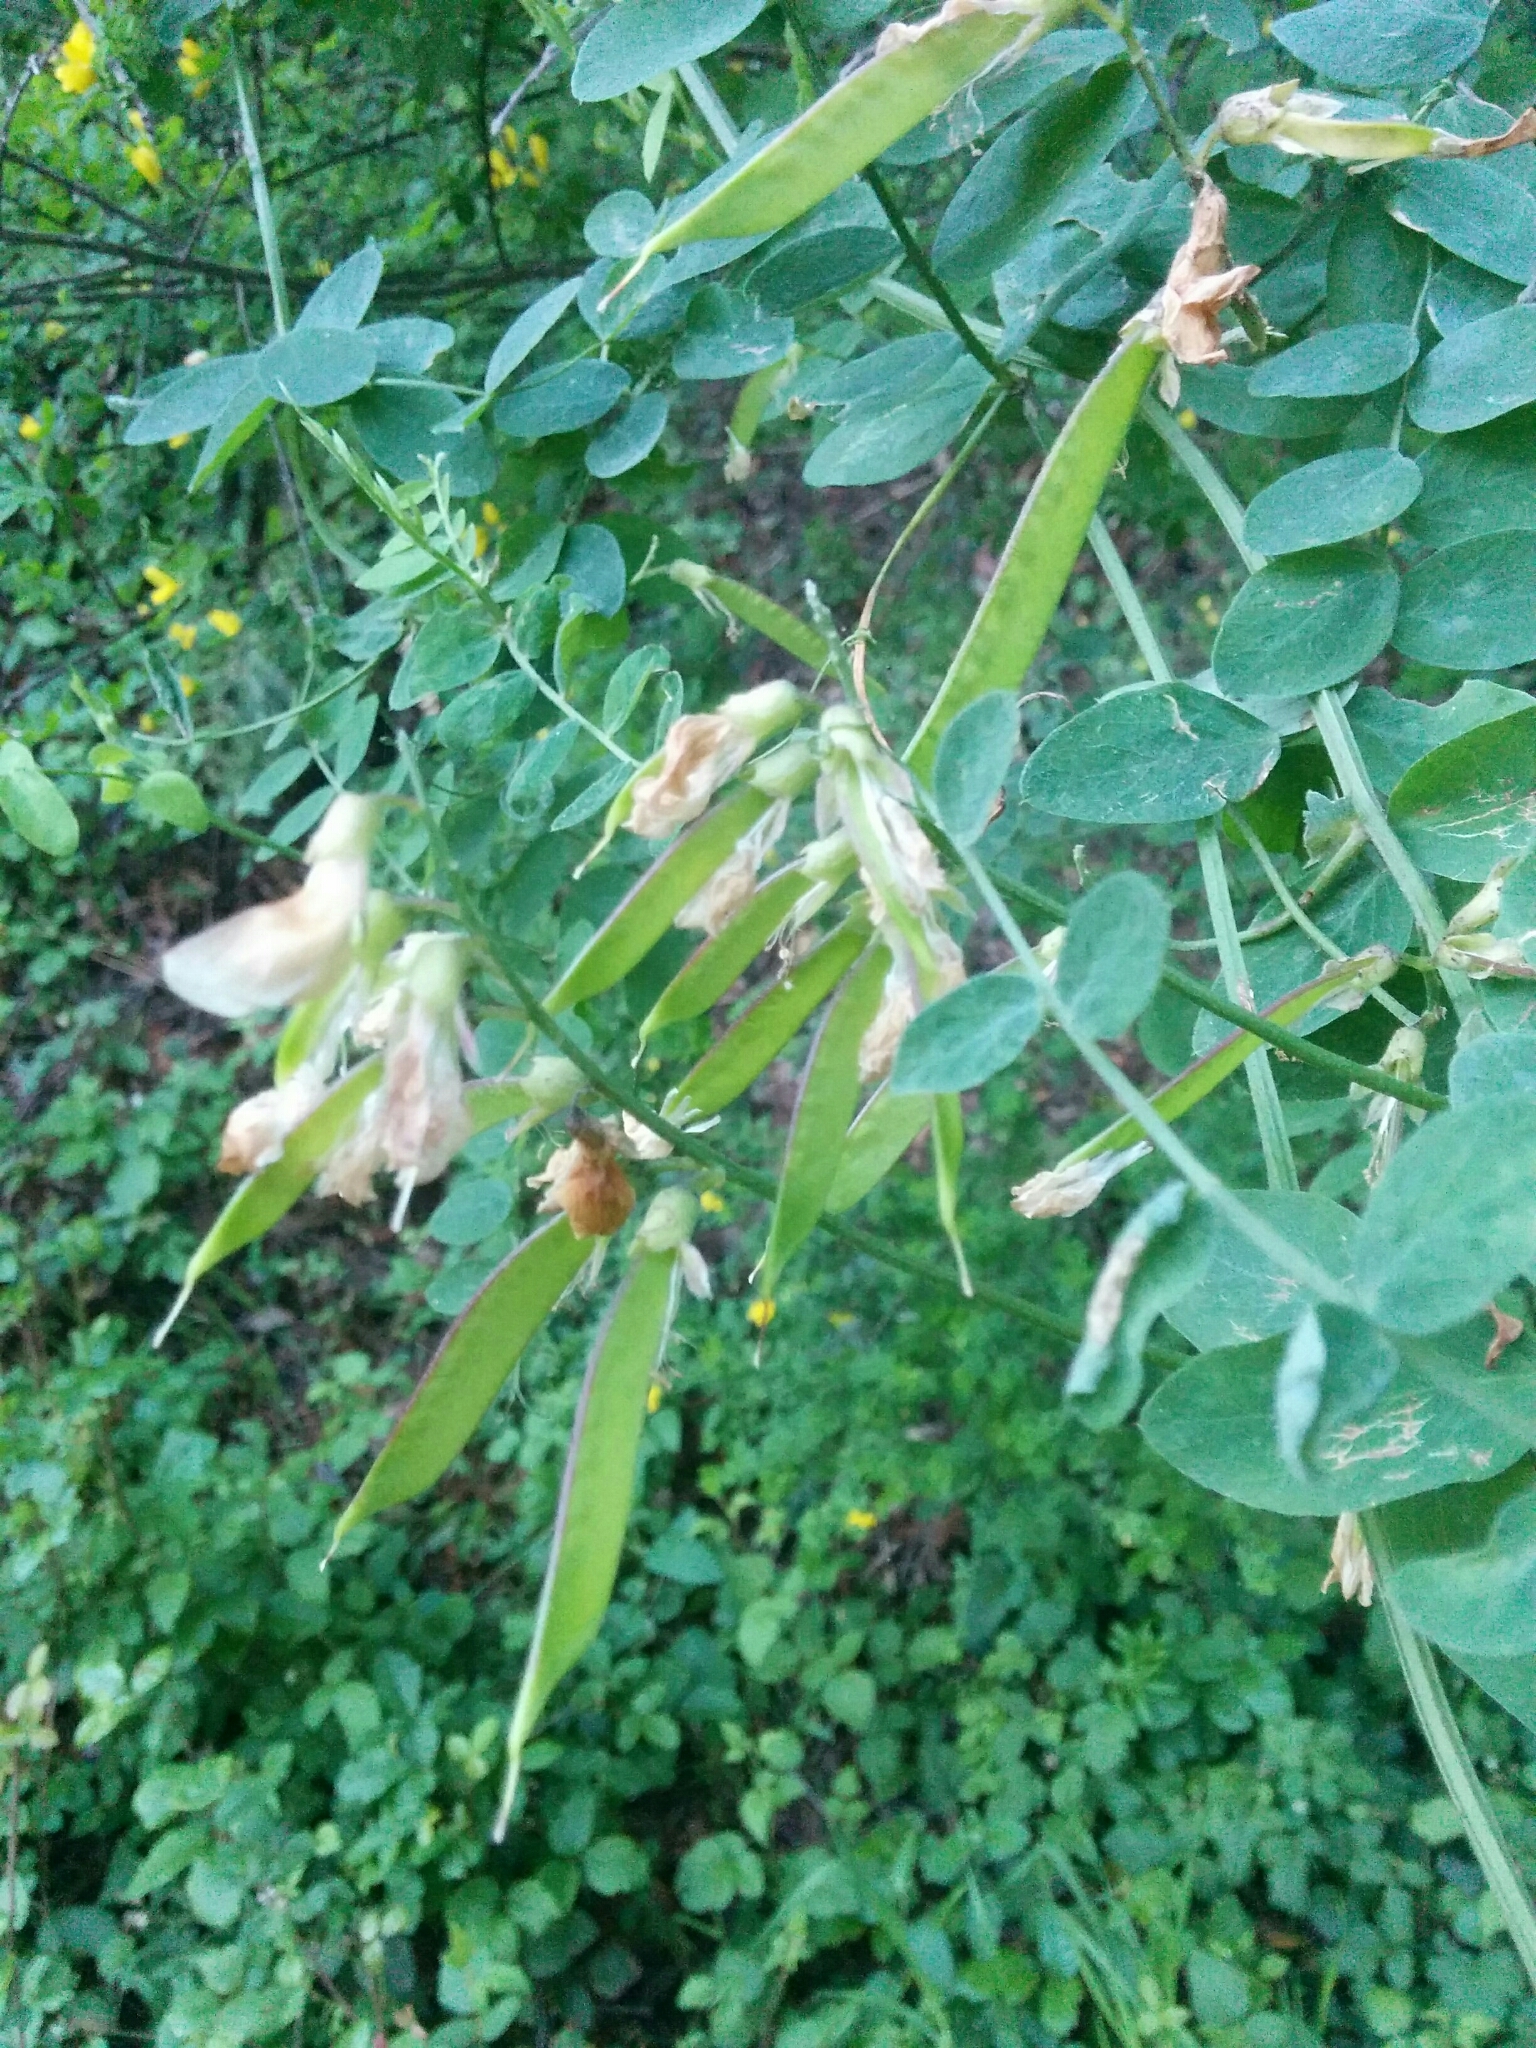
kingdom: Plantae
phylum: Tracheophyta
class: Magnoliopsida
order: Fabales
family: Fabaceae
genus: Lathyrus
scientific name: Lathyrus vestitus
